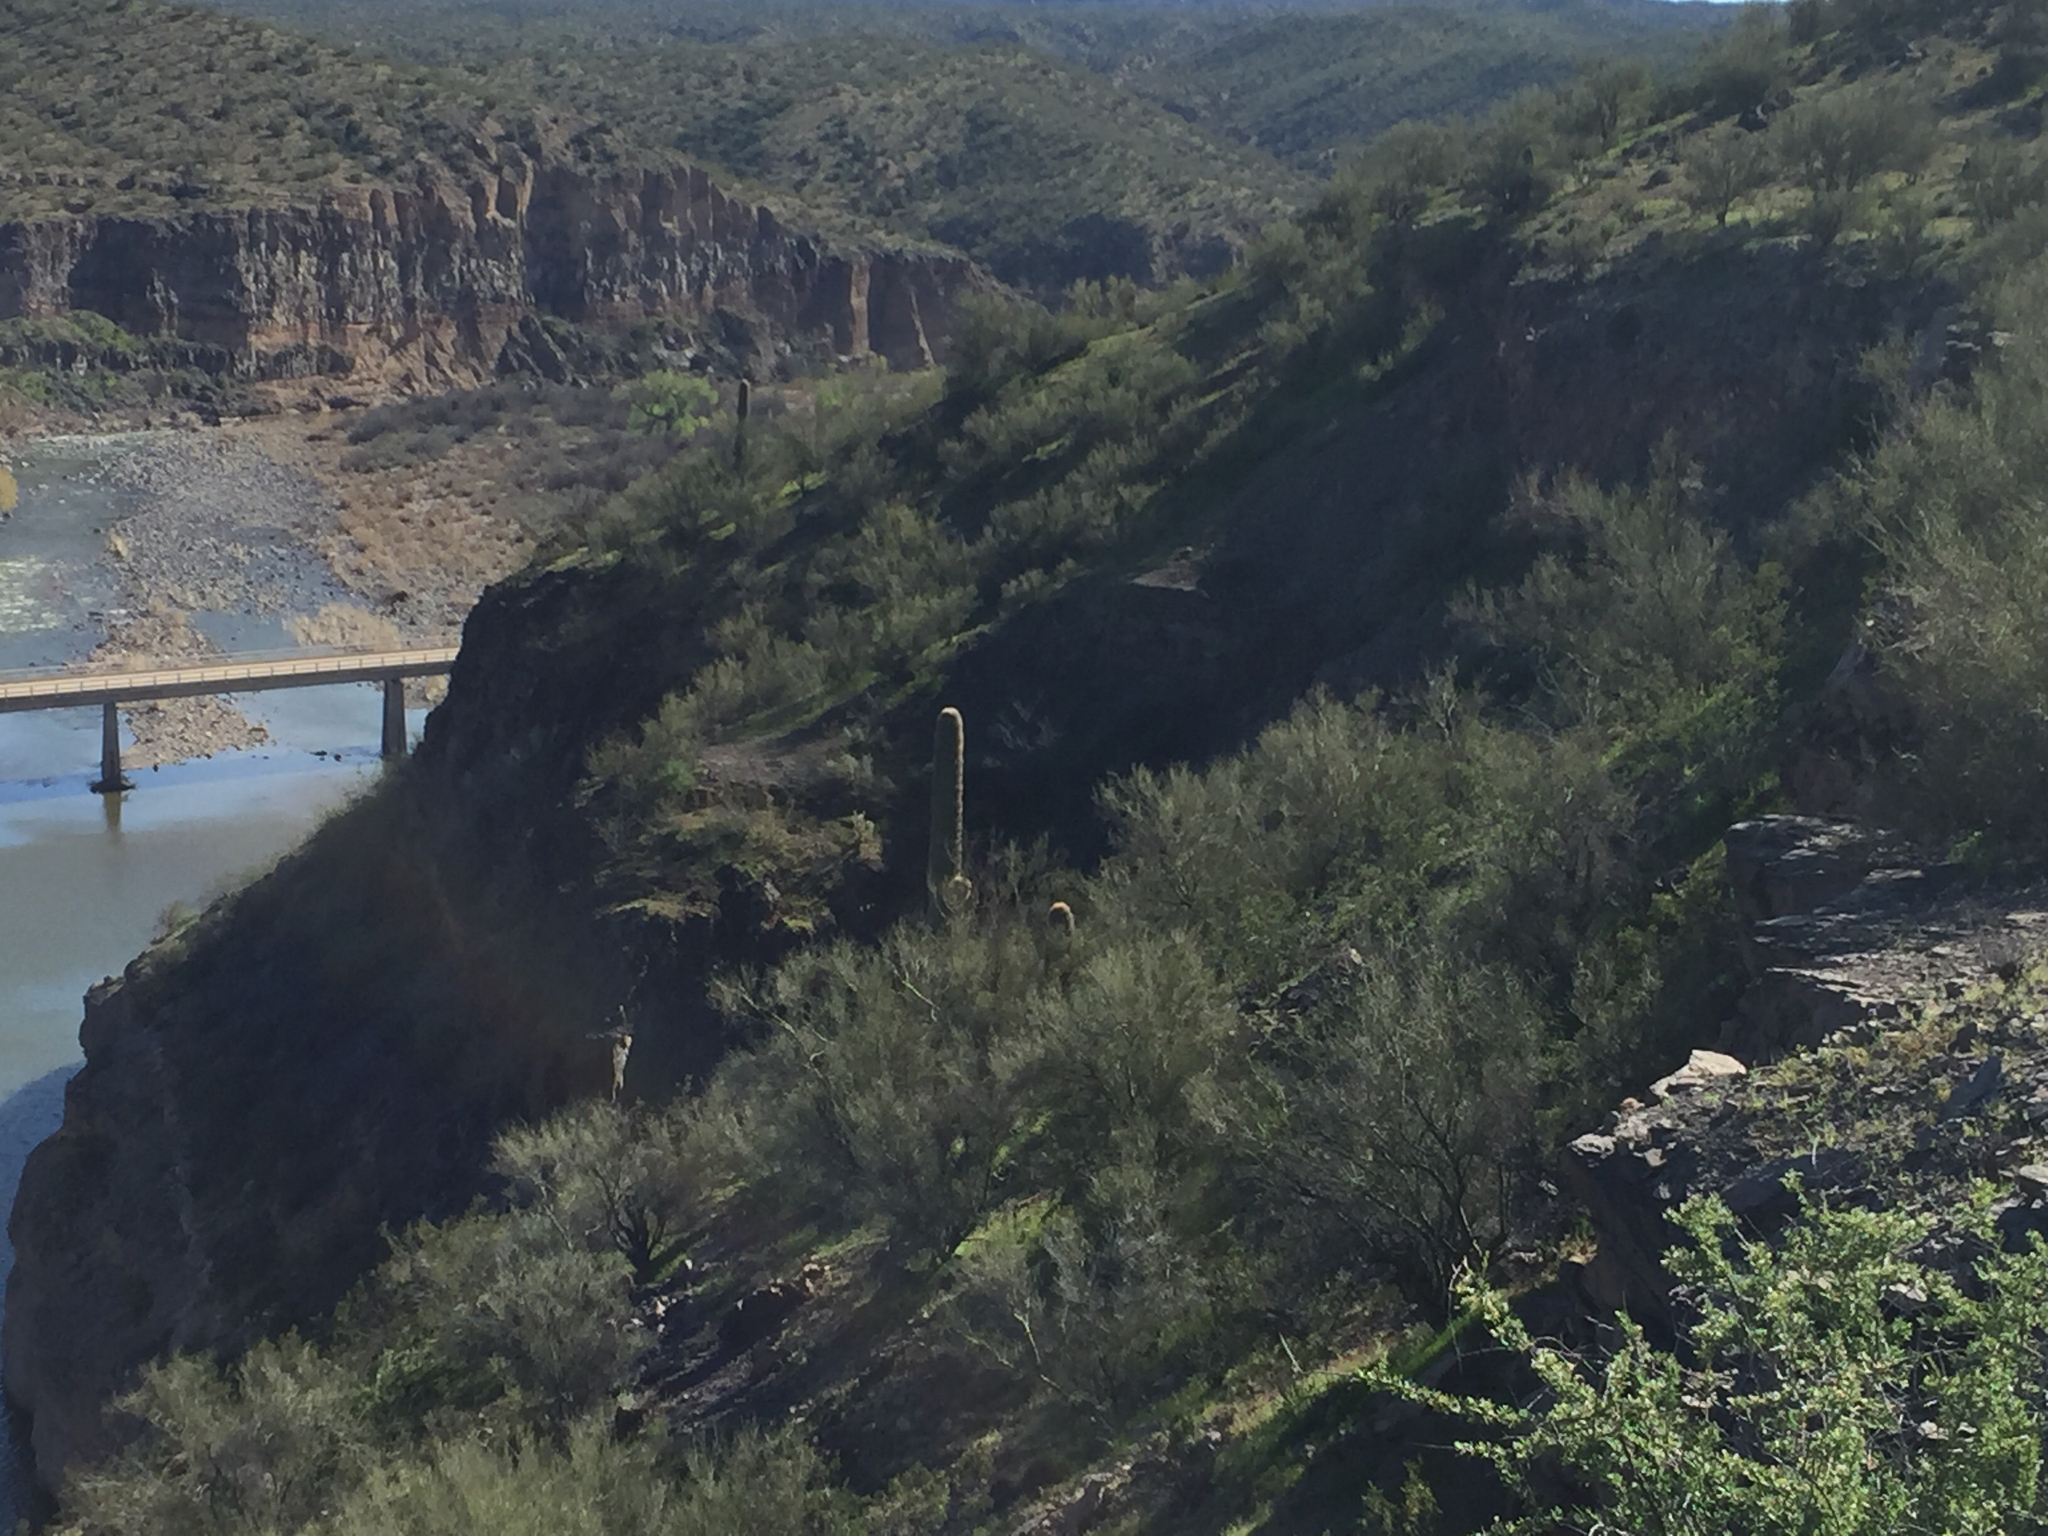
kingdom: Plantae
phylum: Tracheophyta
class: Magnoliopsida
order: Caryophyllales
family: Cactaceae
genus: Carnegiea
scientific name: Carnegiea gigantea
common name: Saguaro
